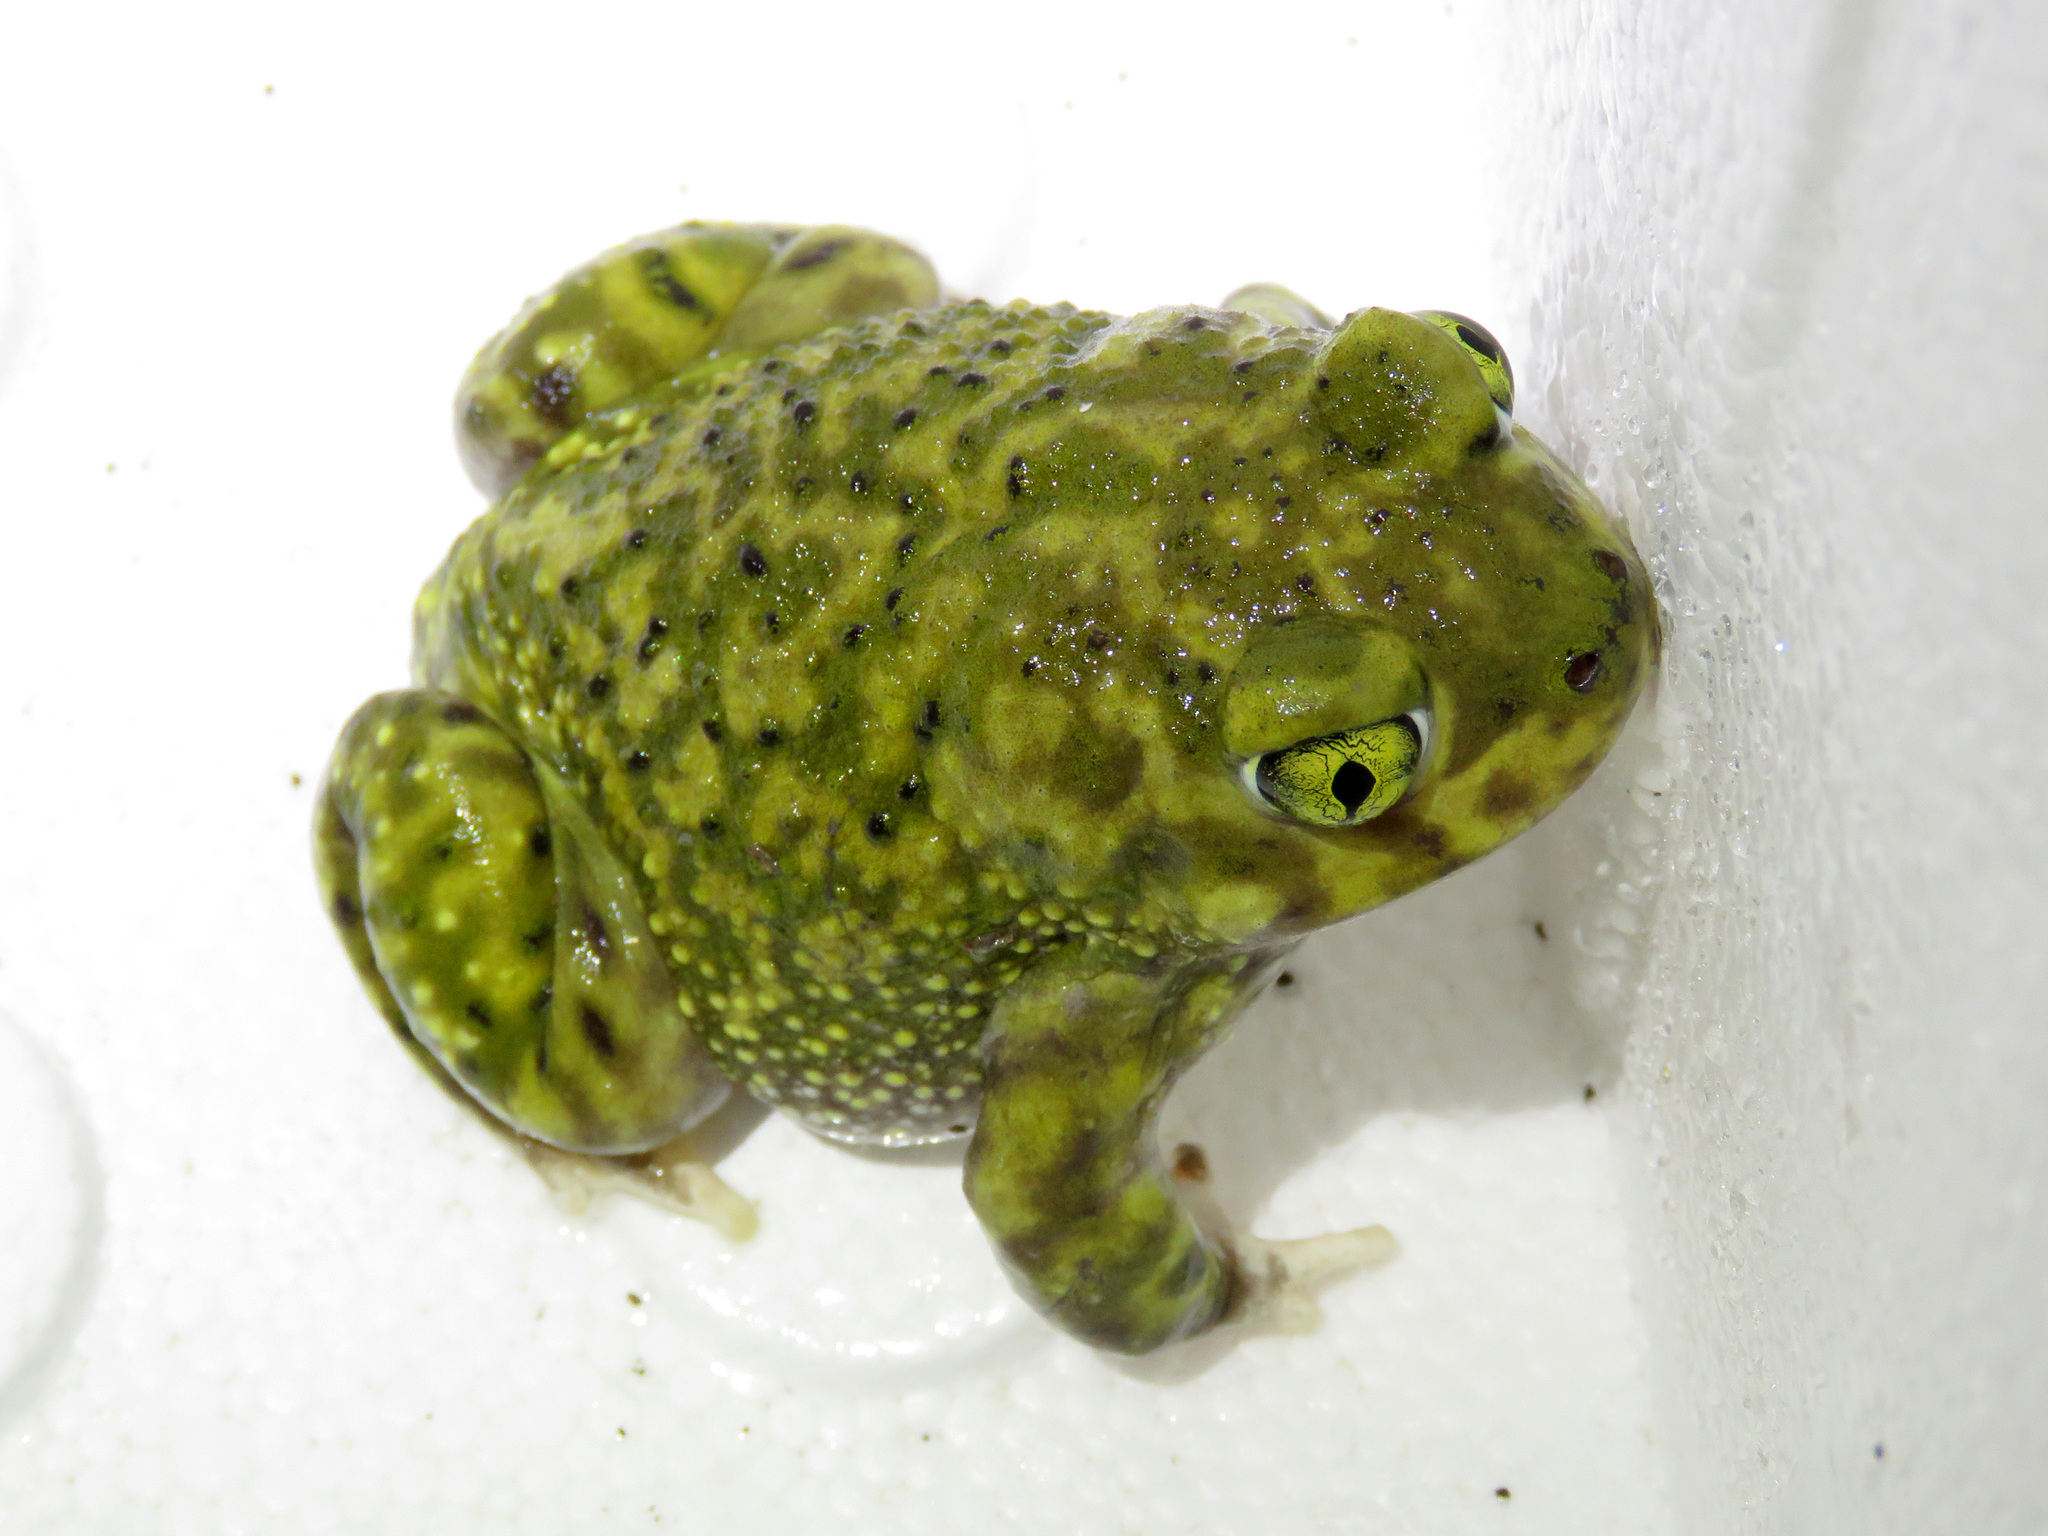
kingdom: Animalia
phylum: Chordata
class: Amphibia
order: Anura
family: Scaphiopodidae
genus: Scaphiopus
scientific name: Scaphiopus couchii
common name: Couch's spadefoot toad
